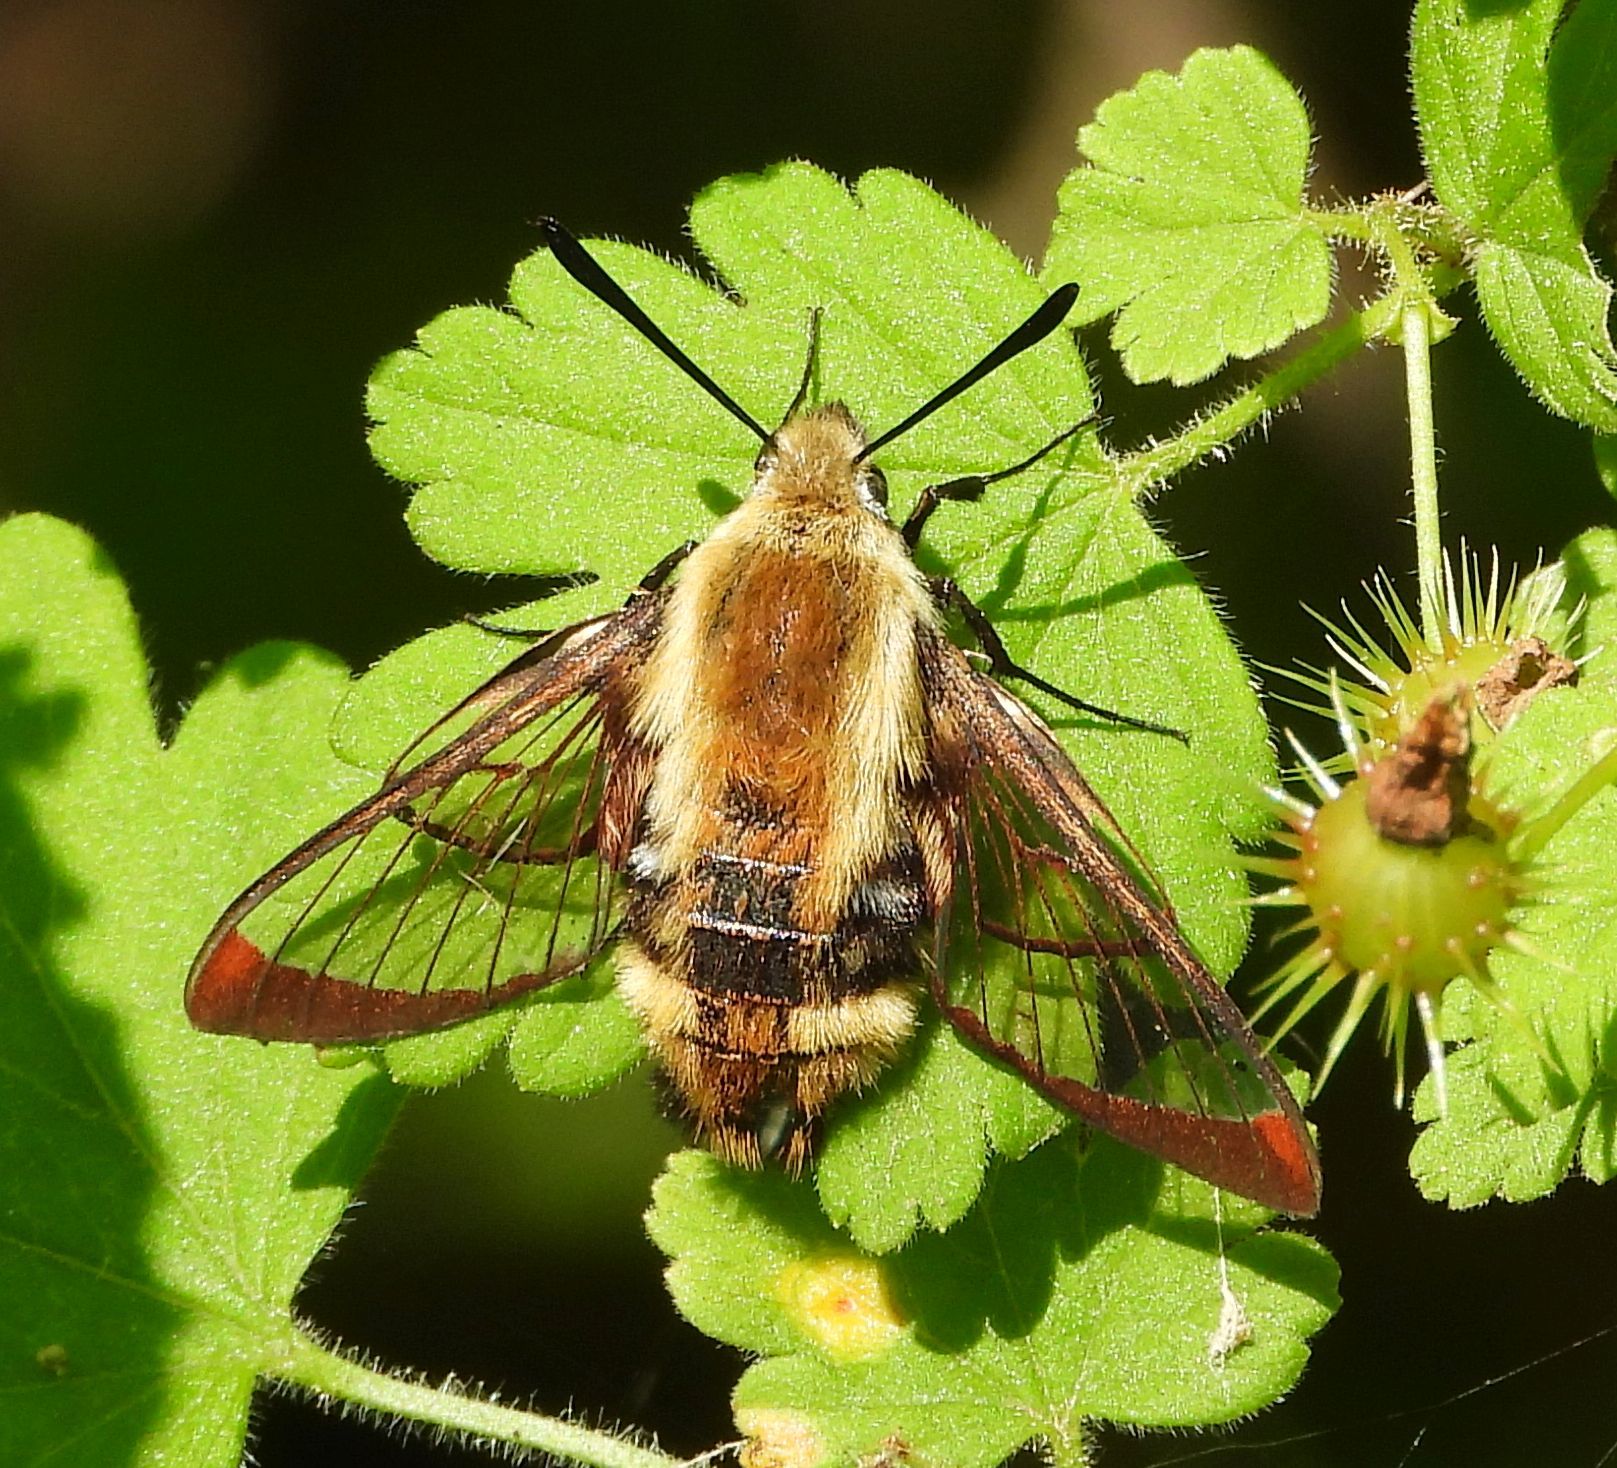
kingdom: Animalia
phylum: Arthropoda
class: Insecta
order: Lepidoptera
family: Sphingidae
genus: Hemaris
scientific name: Hemaris diffinis
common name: Bumblebee moth
